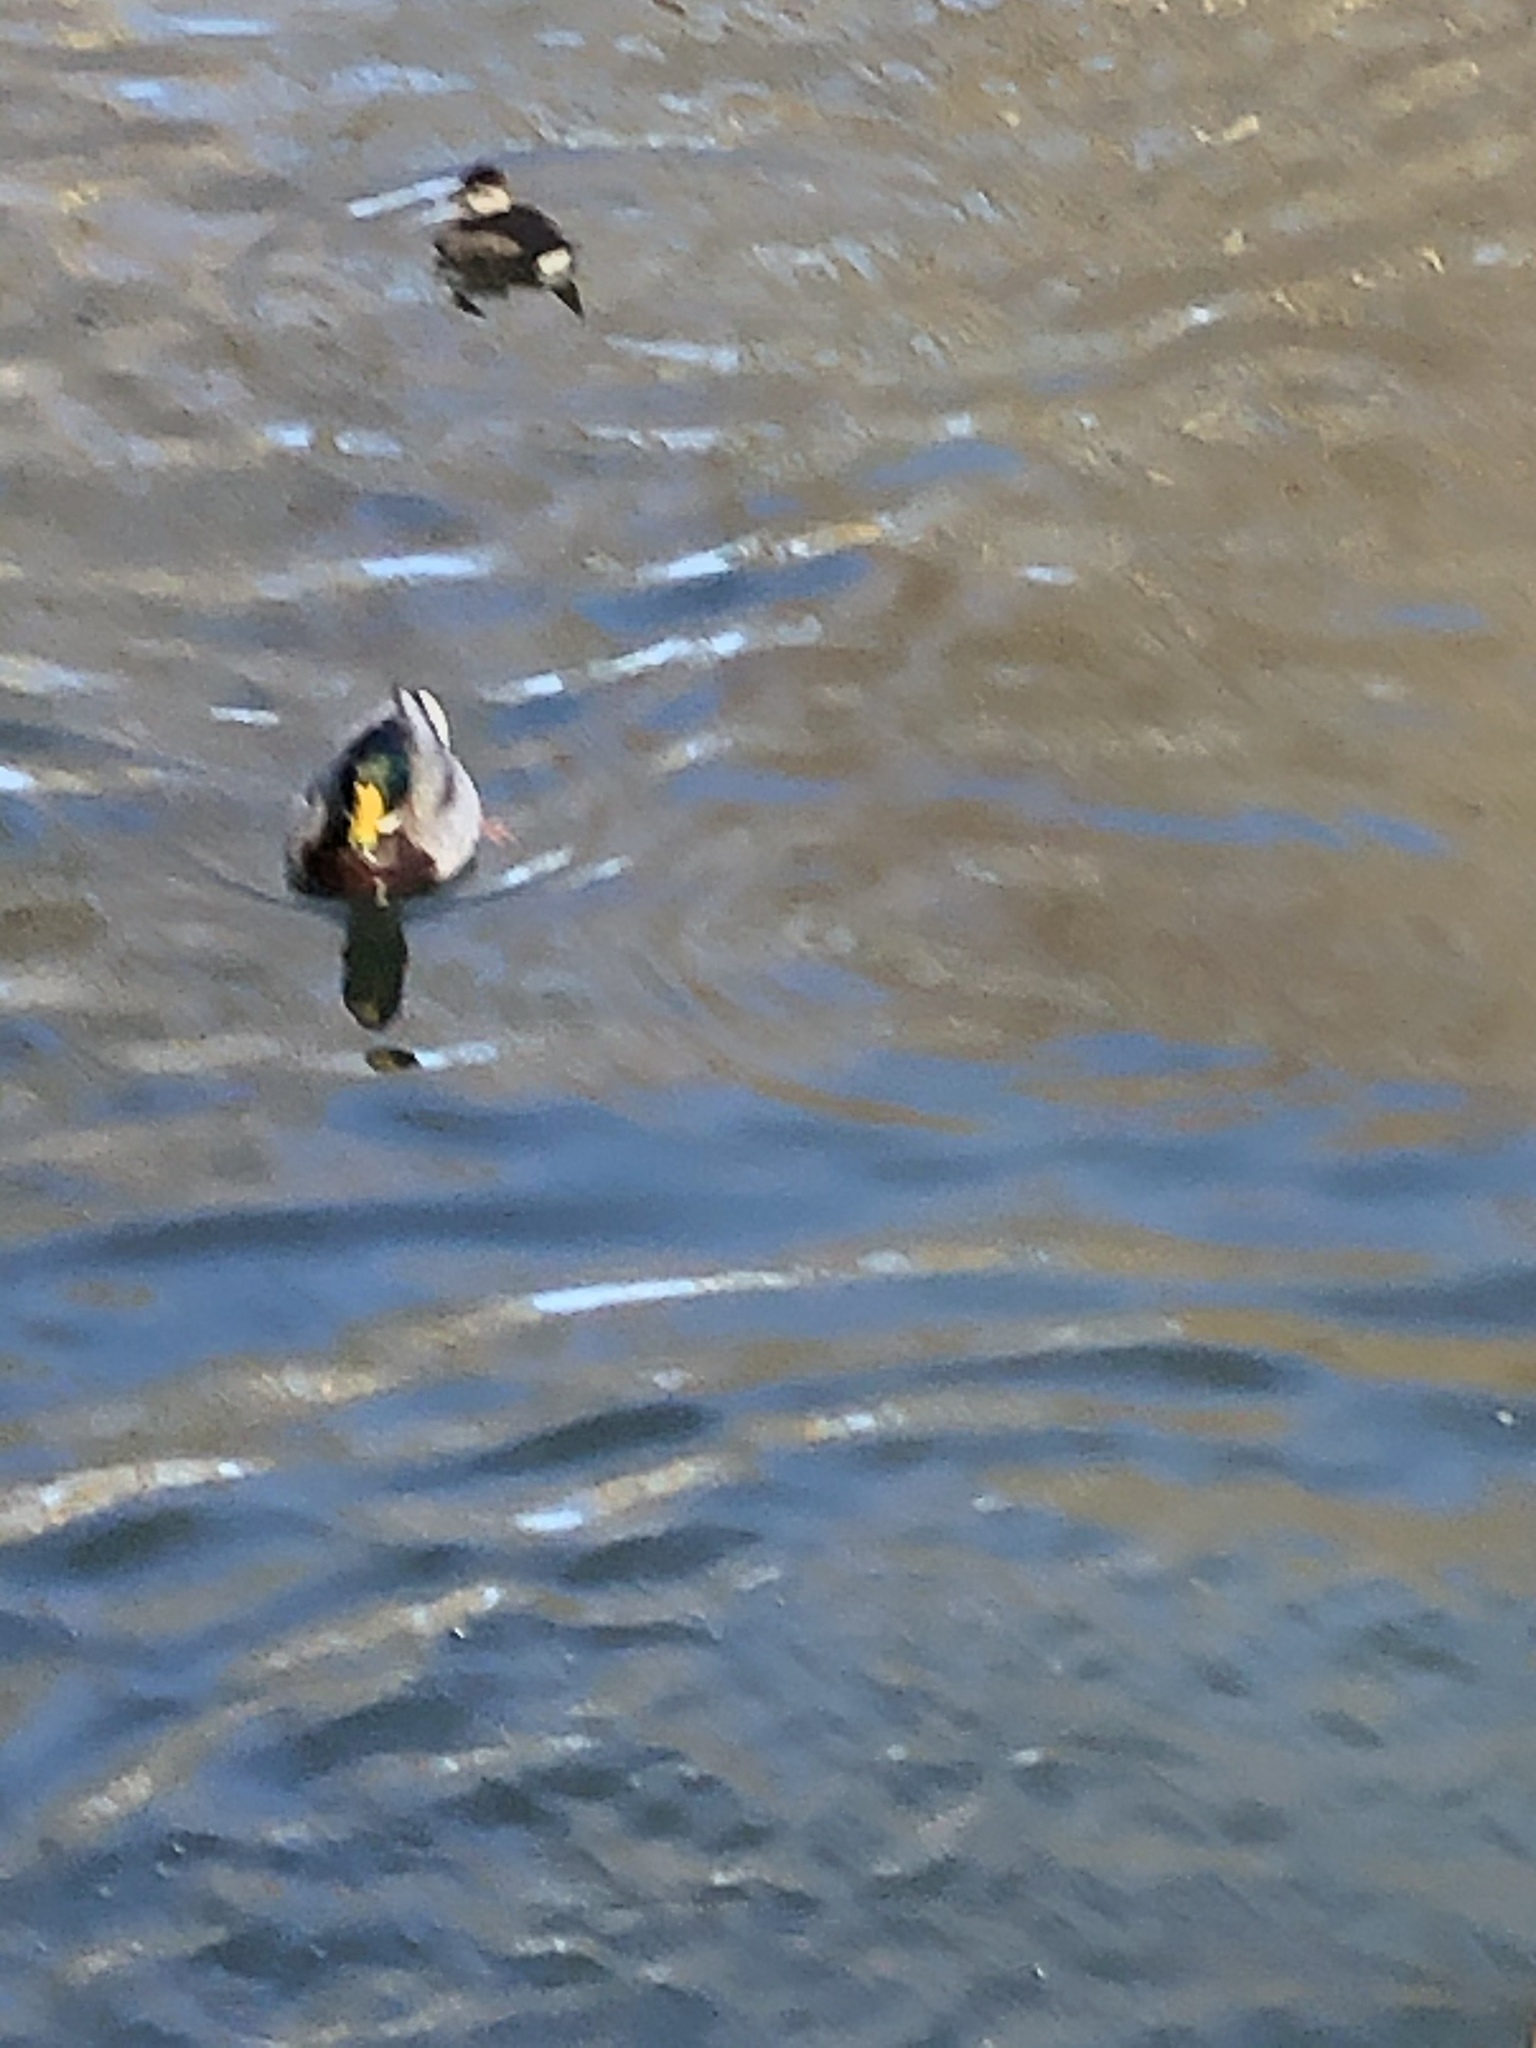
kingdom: Animalia
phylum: Chordata
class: Aves
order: Anseriformes
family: Anatidae
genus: Anas
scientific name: Anas platyrhynchos
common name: Mallard
